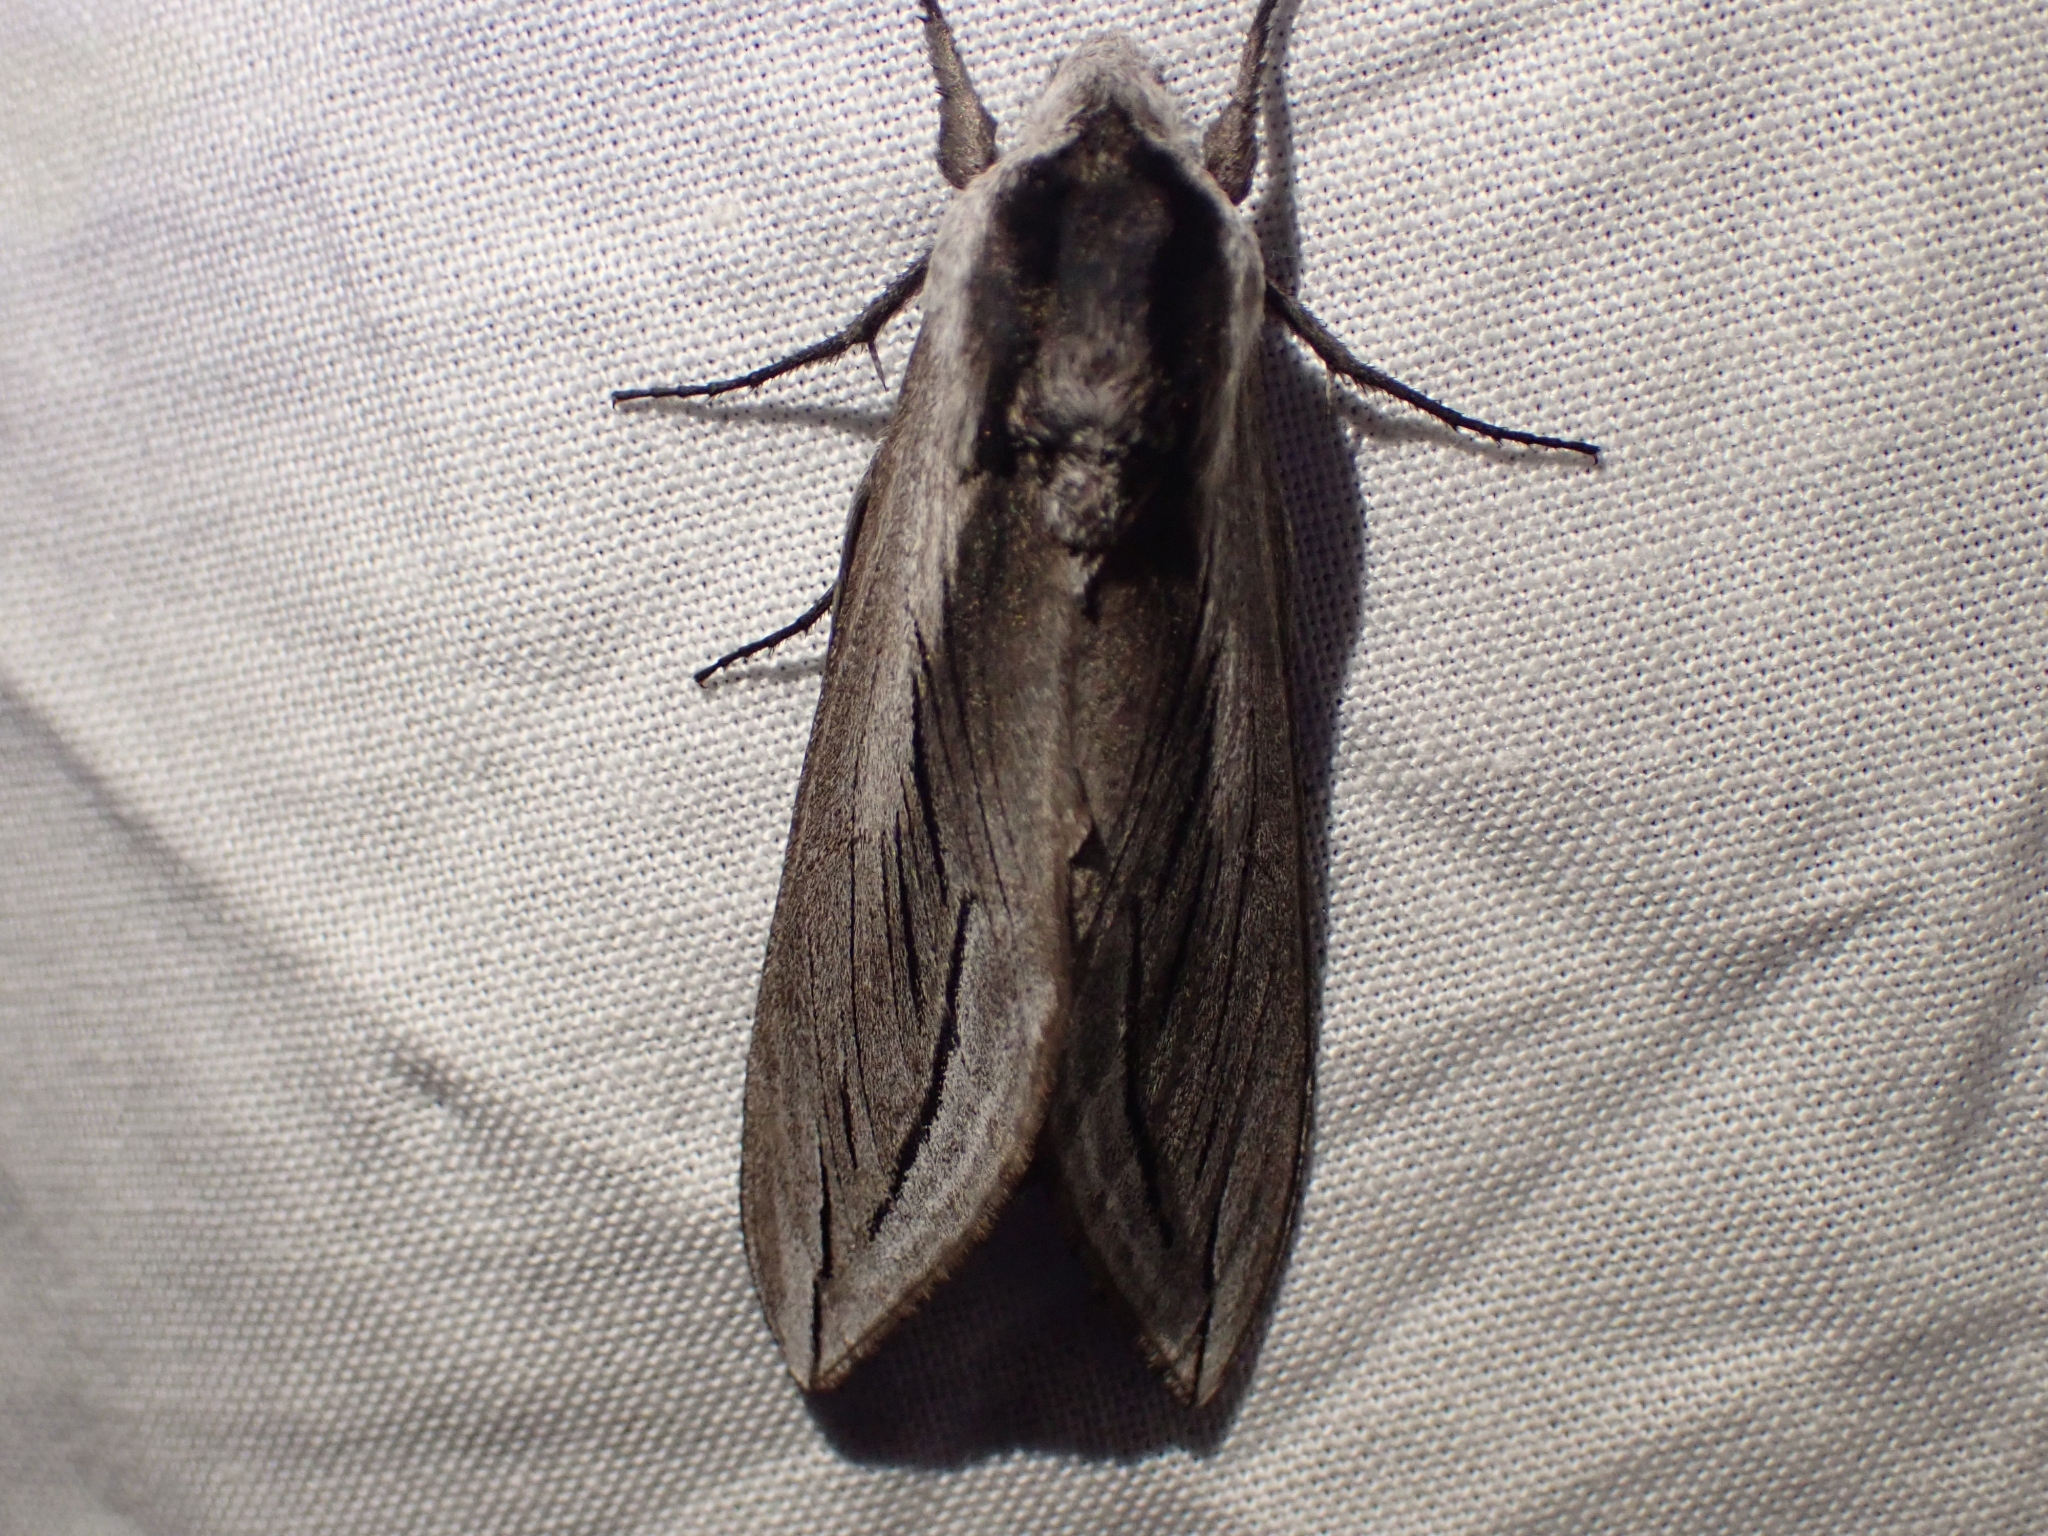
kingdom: Animalia
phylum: Arthropoda
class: Insecta
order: Lepidoptera
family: Sphingidae
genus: Sphinx
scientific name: Sphinx vashti
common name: Snowberry sphinx
